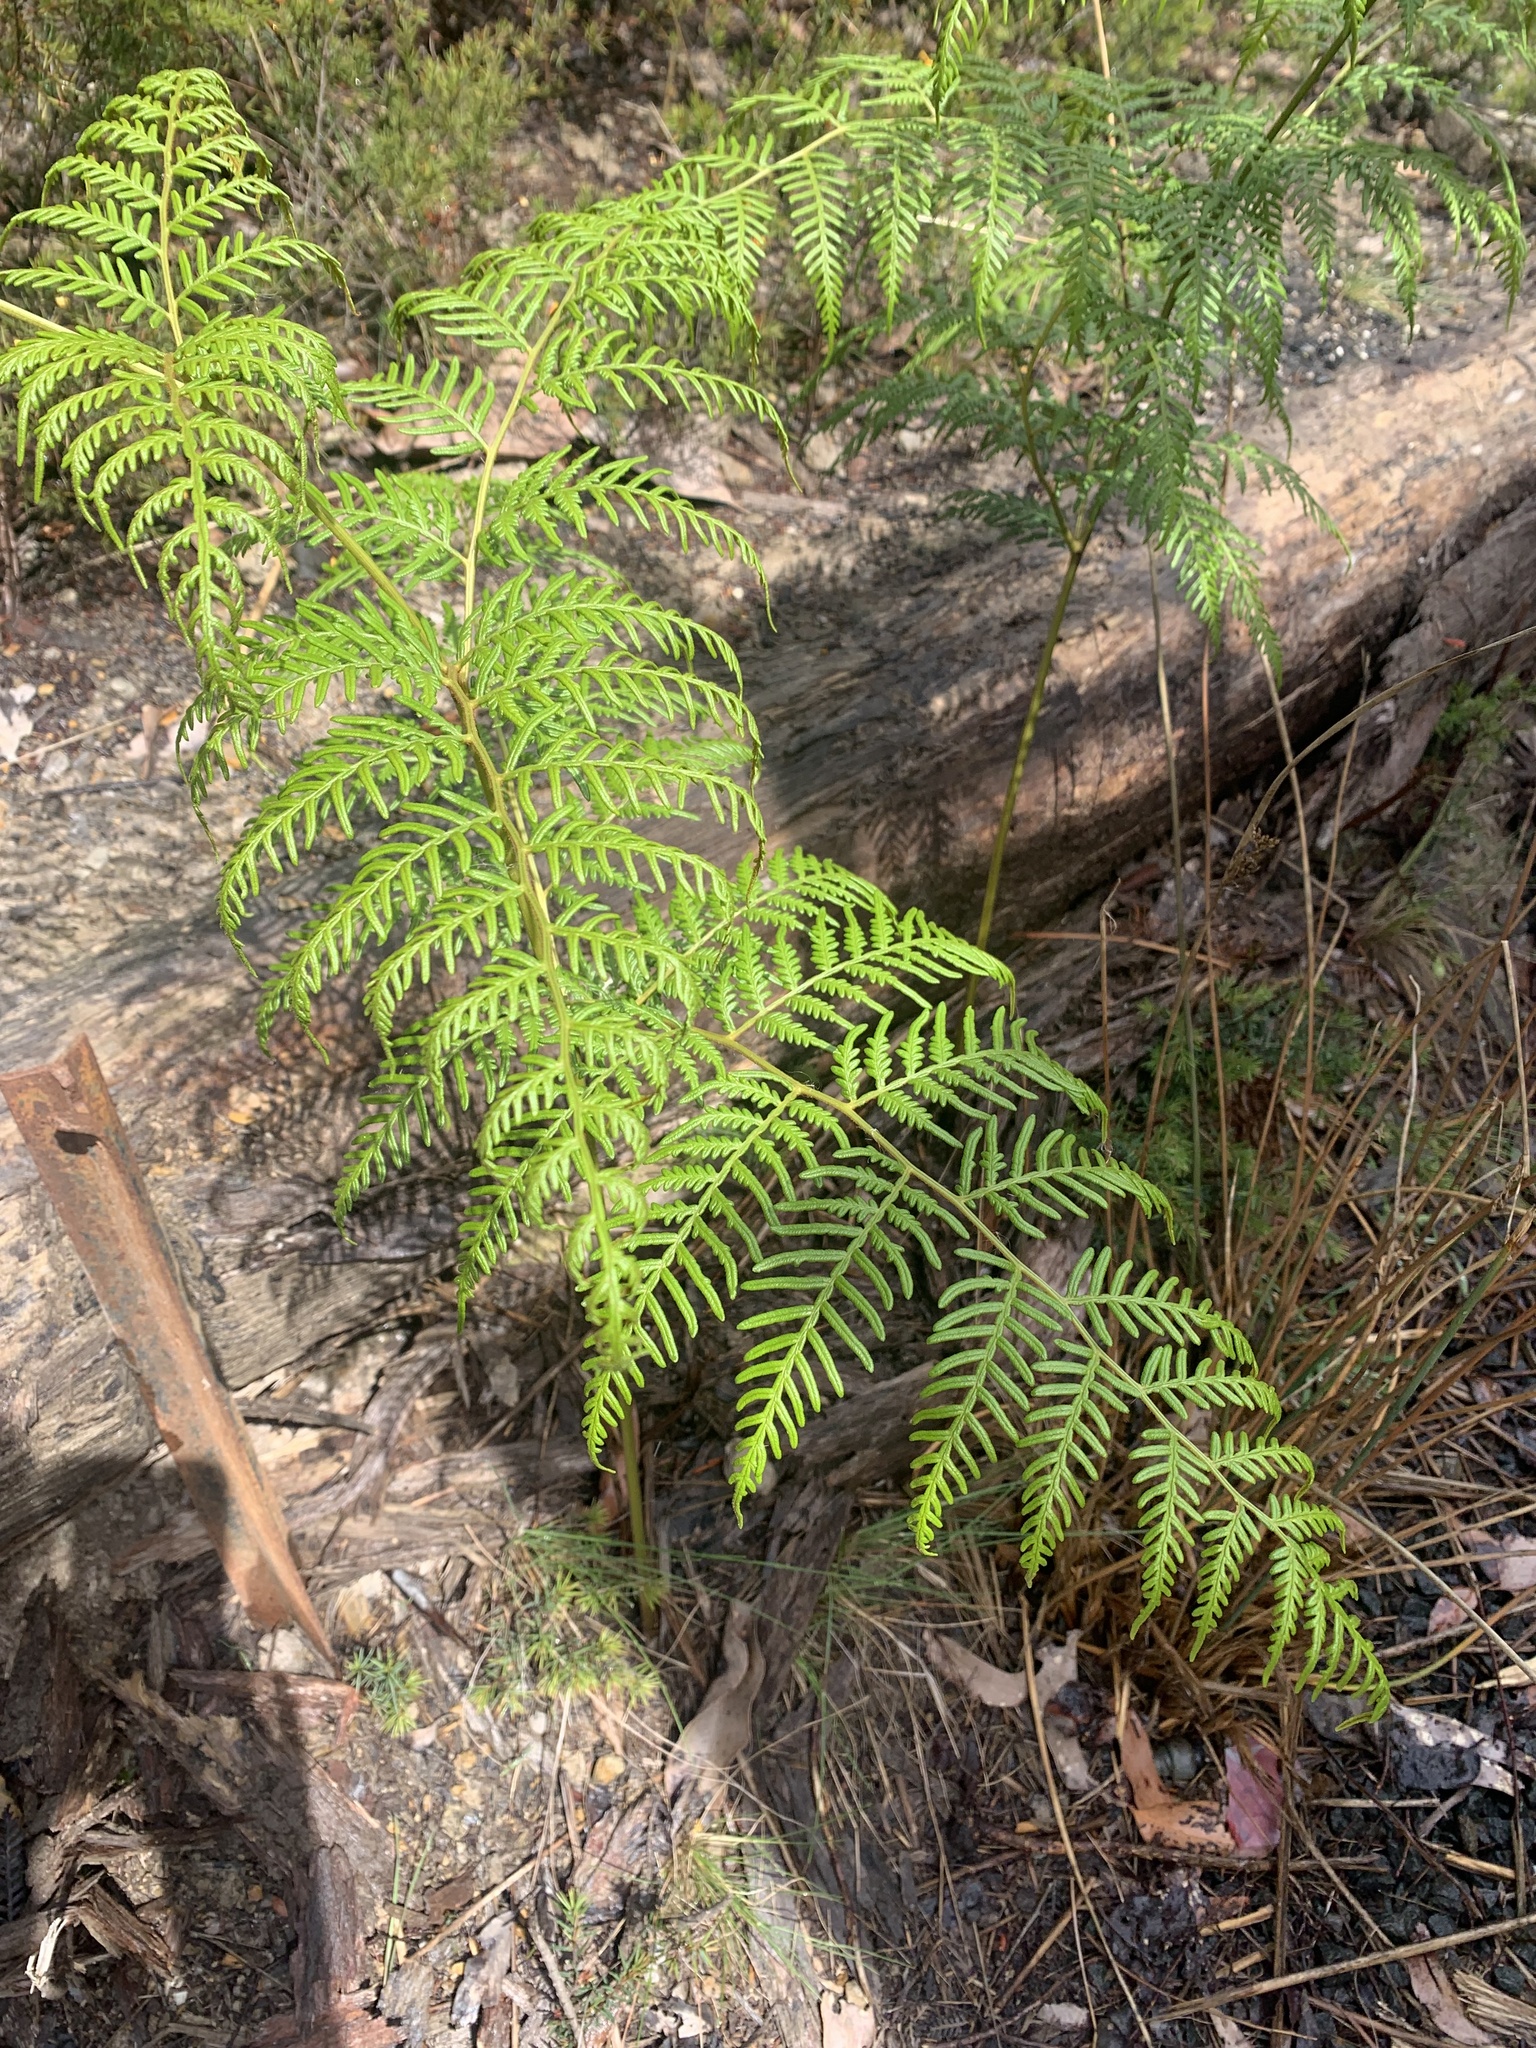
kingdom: Plantae
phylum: Tracheophyta
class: Polypodiopsida
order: Polypodiales
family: Dennstaedtiaceae
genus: Pteridium
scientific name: Pteridium esculentum
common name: Bracken fern
